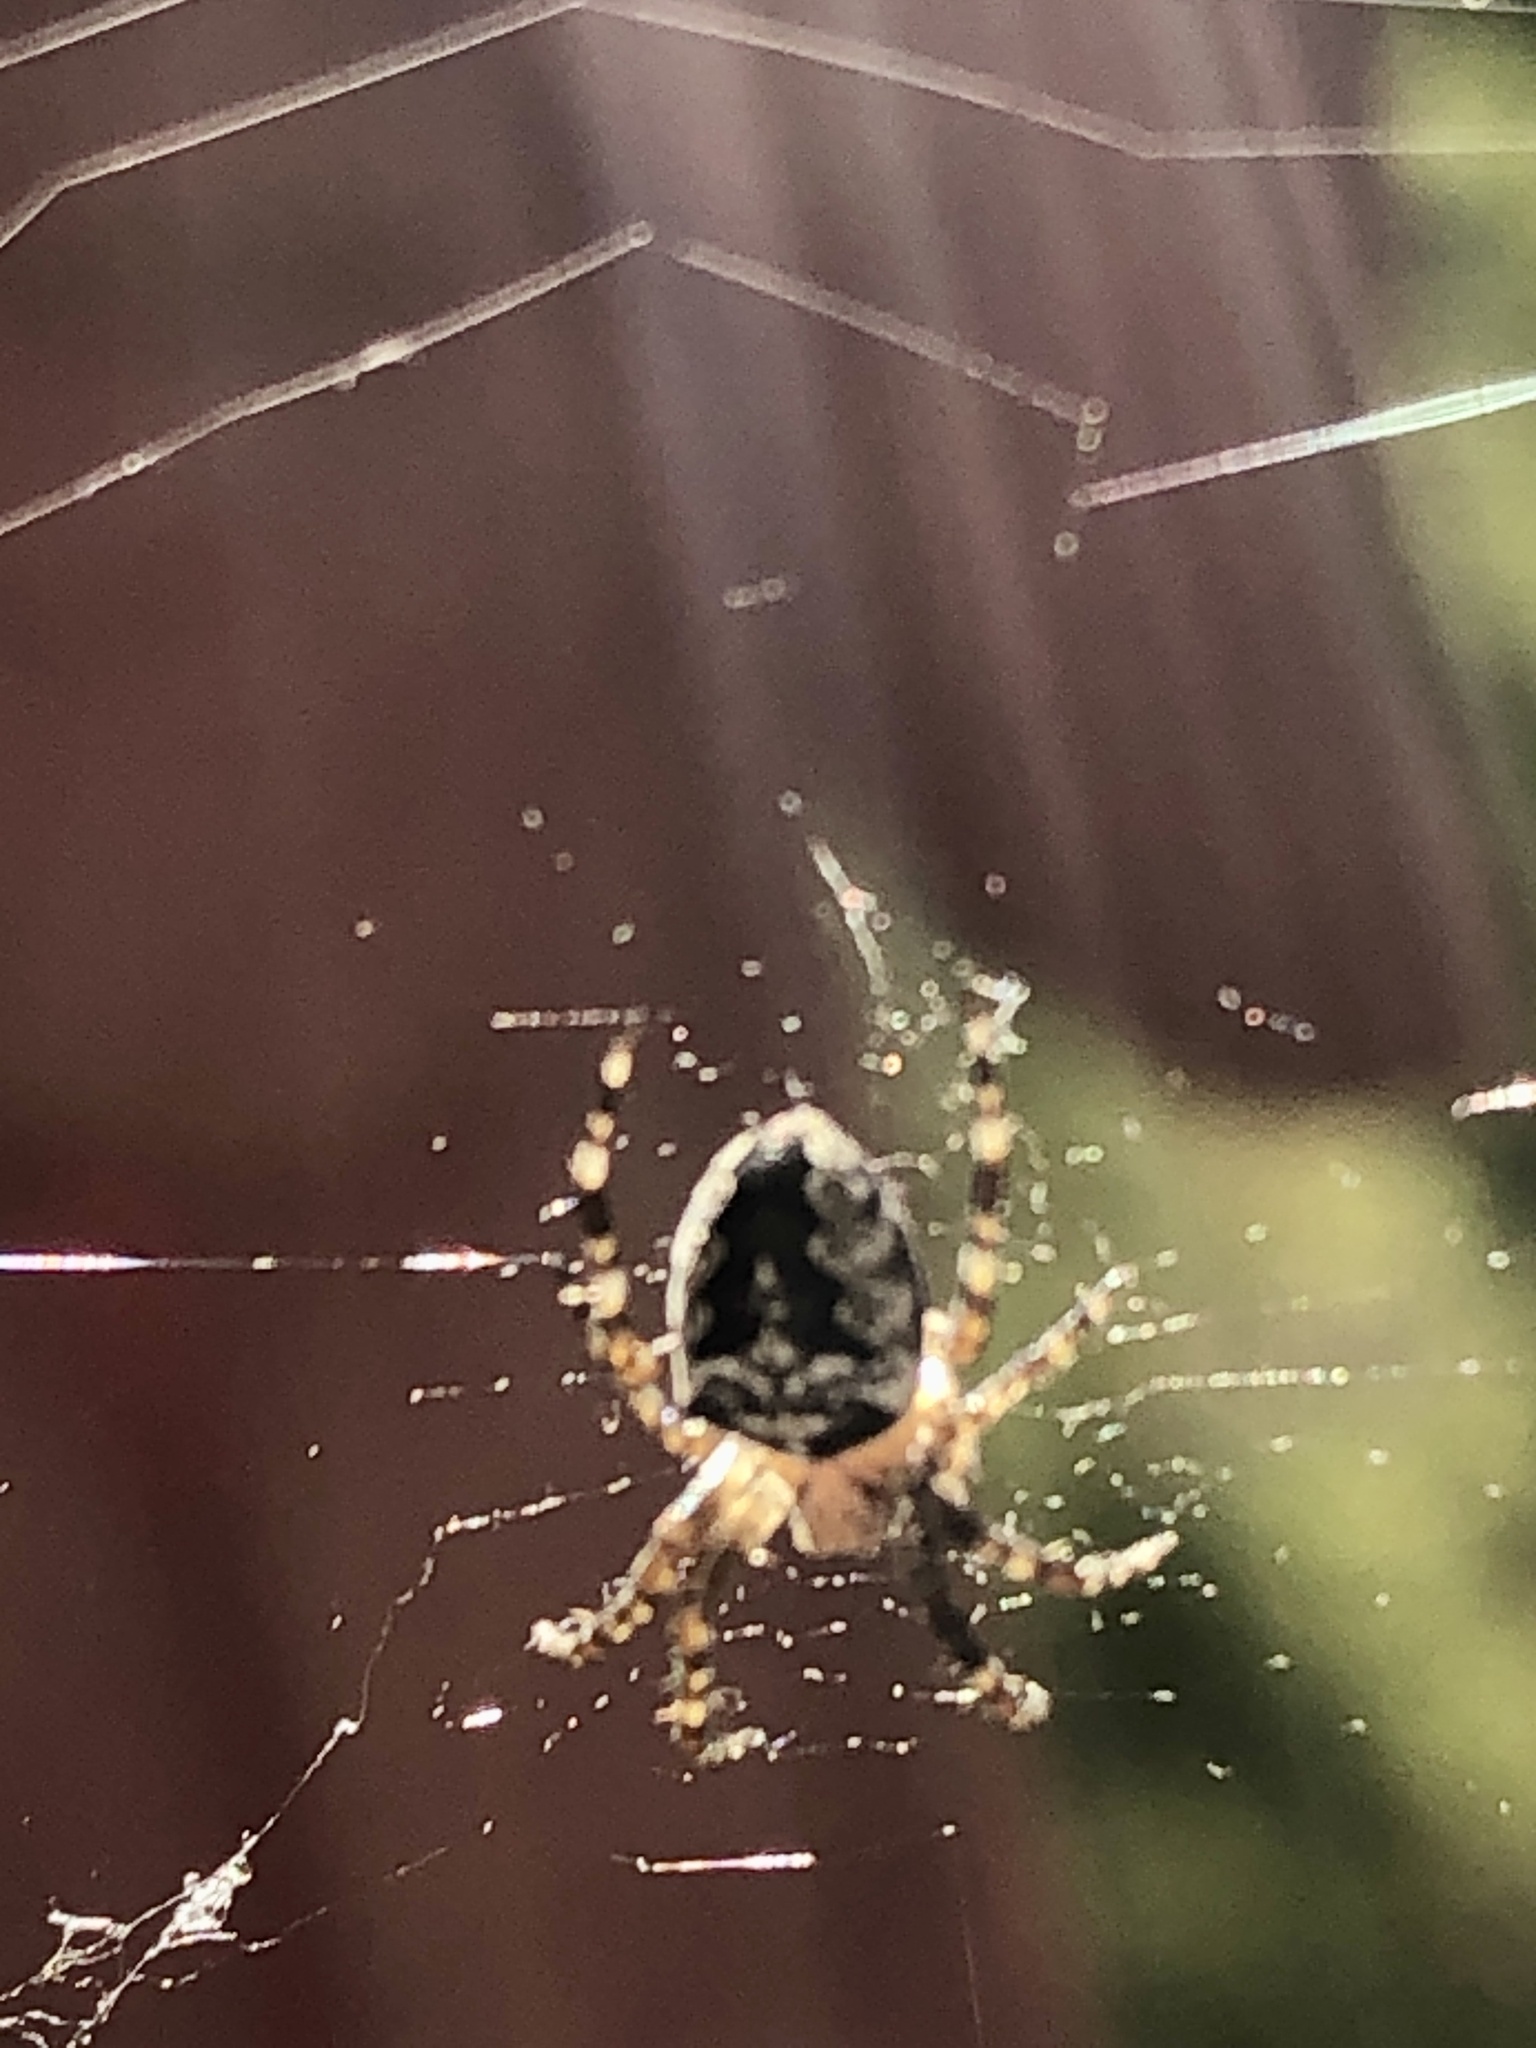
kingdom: Animalia
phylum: Arthropoda
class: Arachnida
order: Araneae
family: Araneidae
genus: Araneus
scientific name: Araneus nordmanni
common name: Nordmann's orbweaver
